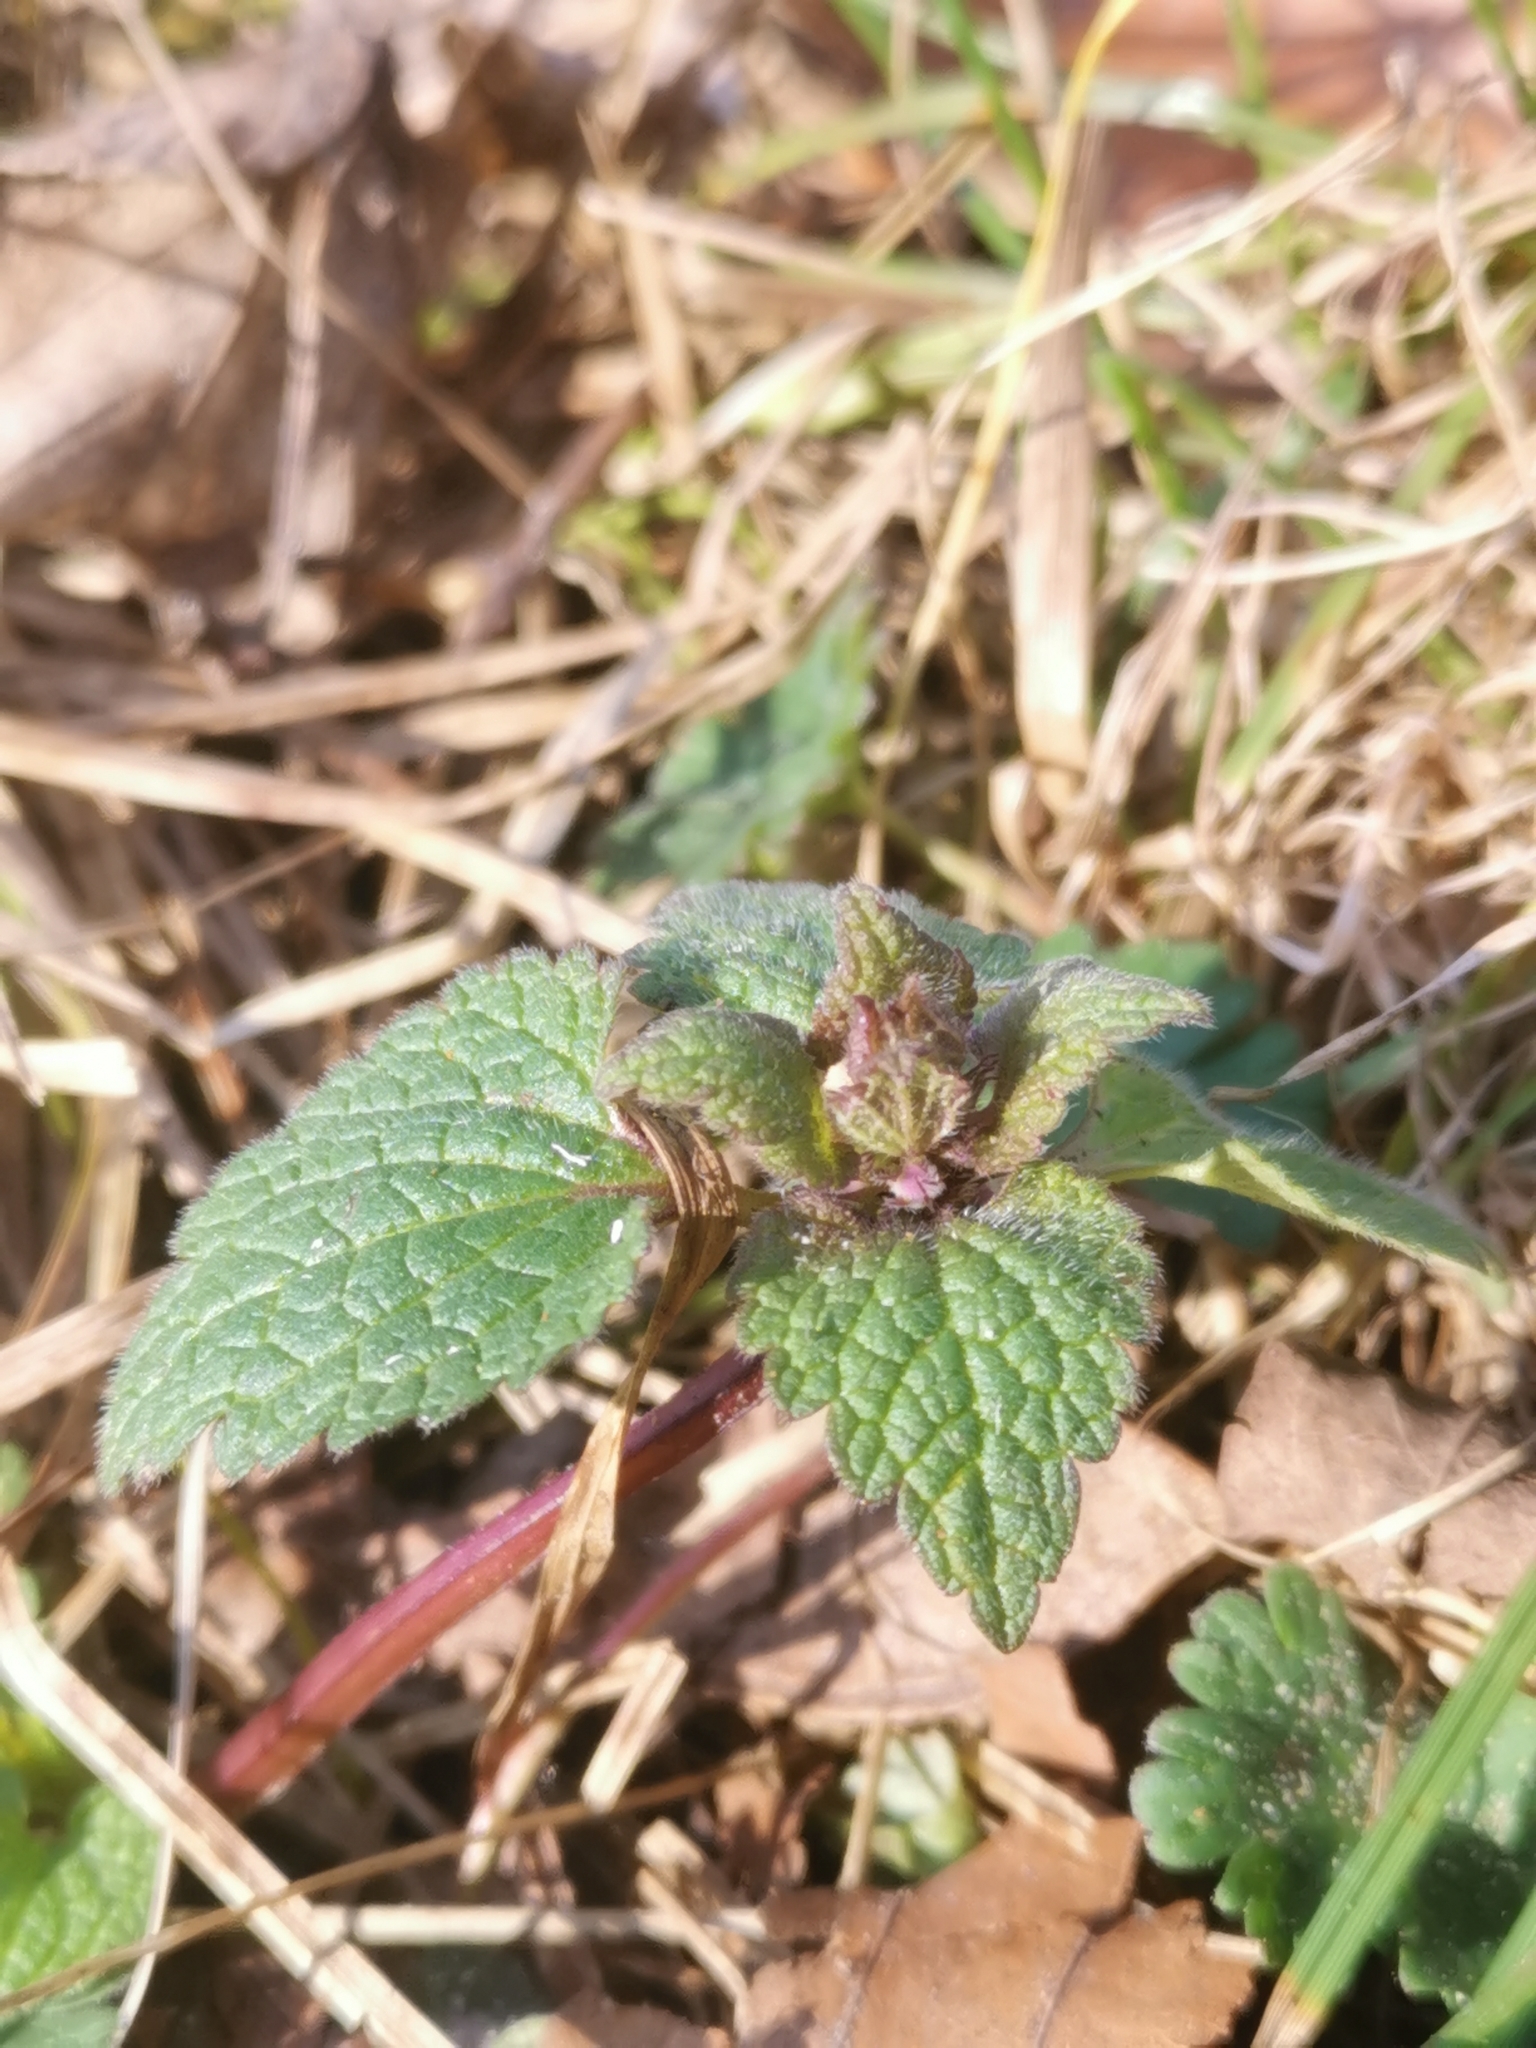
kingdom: Plantae
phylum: Tracheophyta
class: Magnoliopsida
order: Lamiales
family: Lamiaceae
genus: Lamium
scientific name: Lamium purpureum
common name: Red dead-nettle
